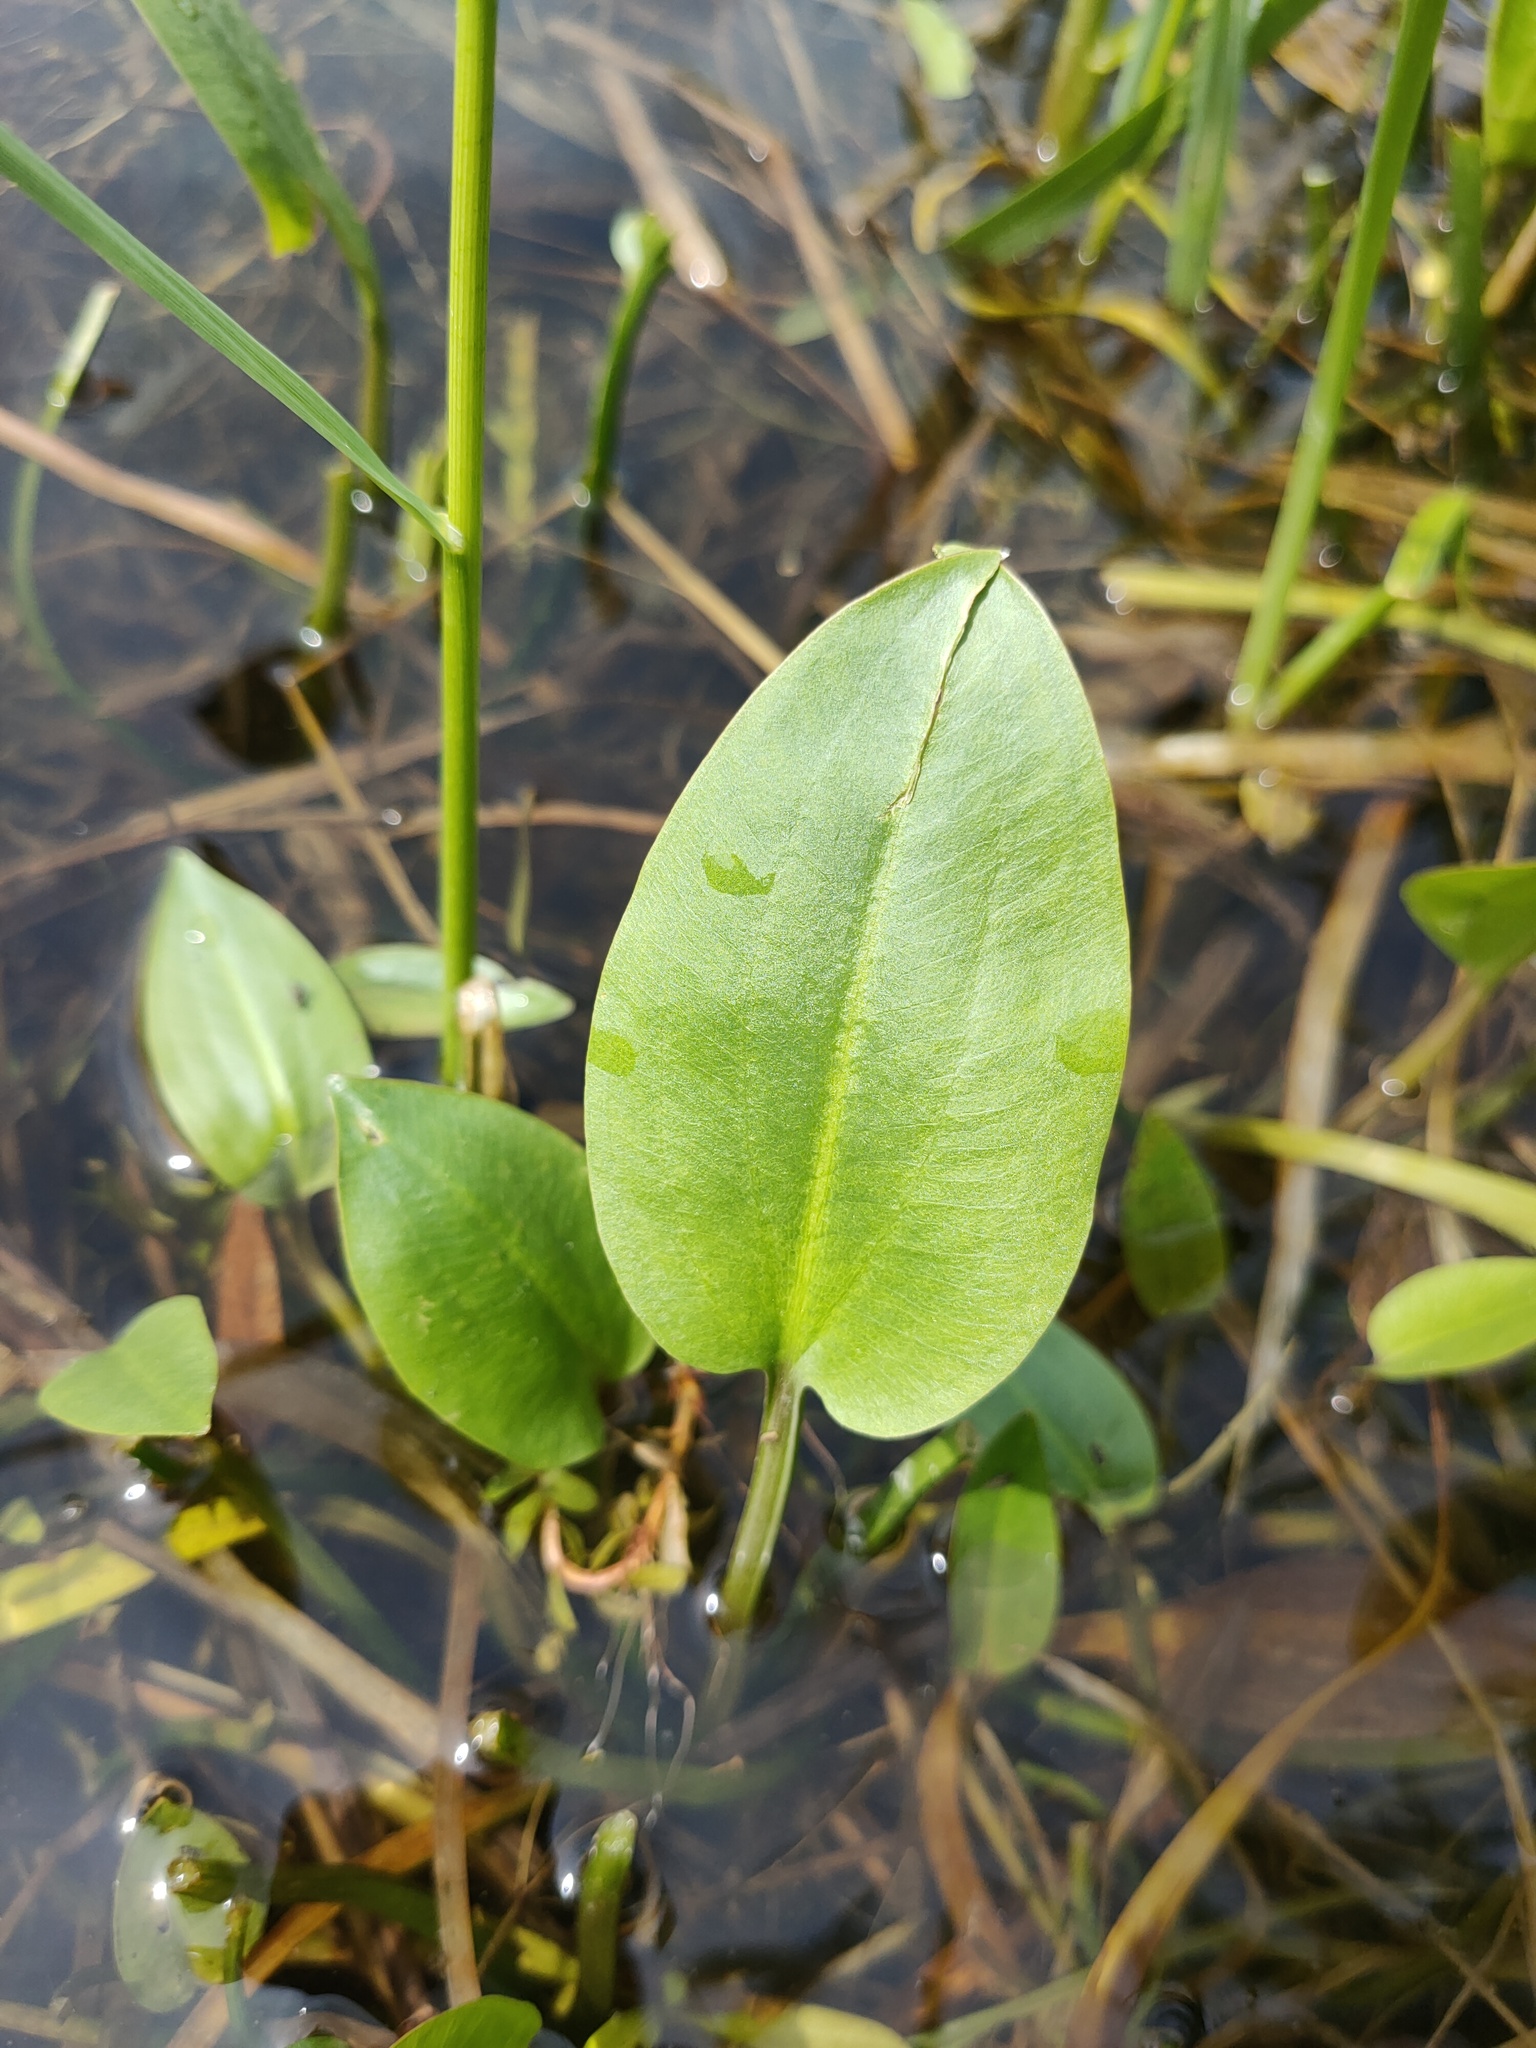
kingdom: Plantae
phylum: Tracheophyta
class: Liliopsida
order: Alismatales
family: Alismataceae
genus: Alisma
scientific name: Alisma plantago-aquatica
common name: Water-plantain
